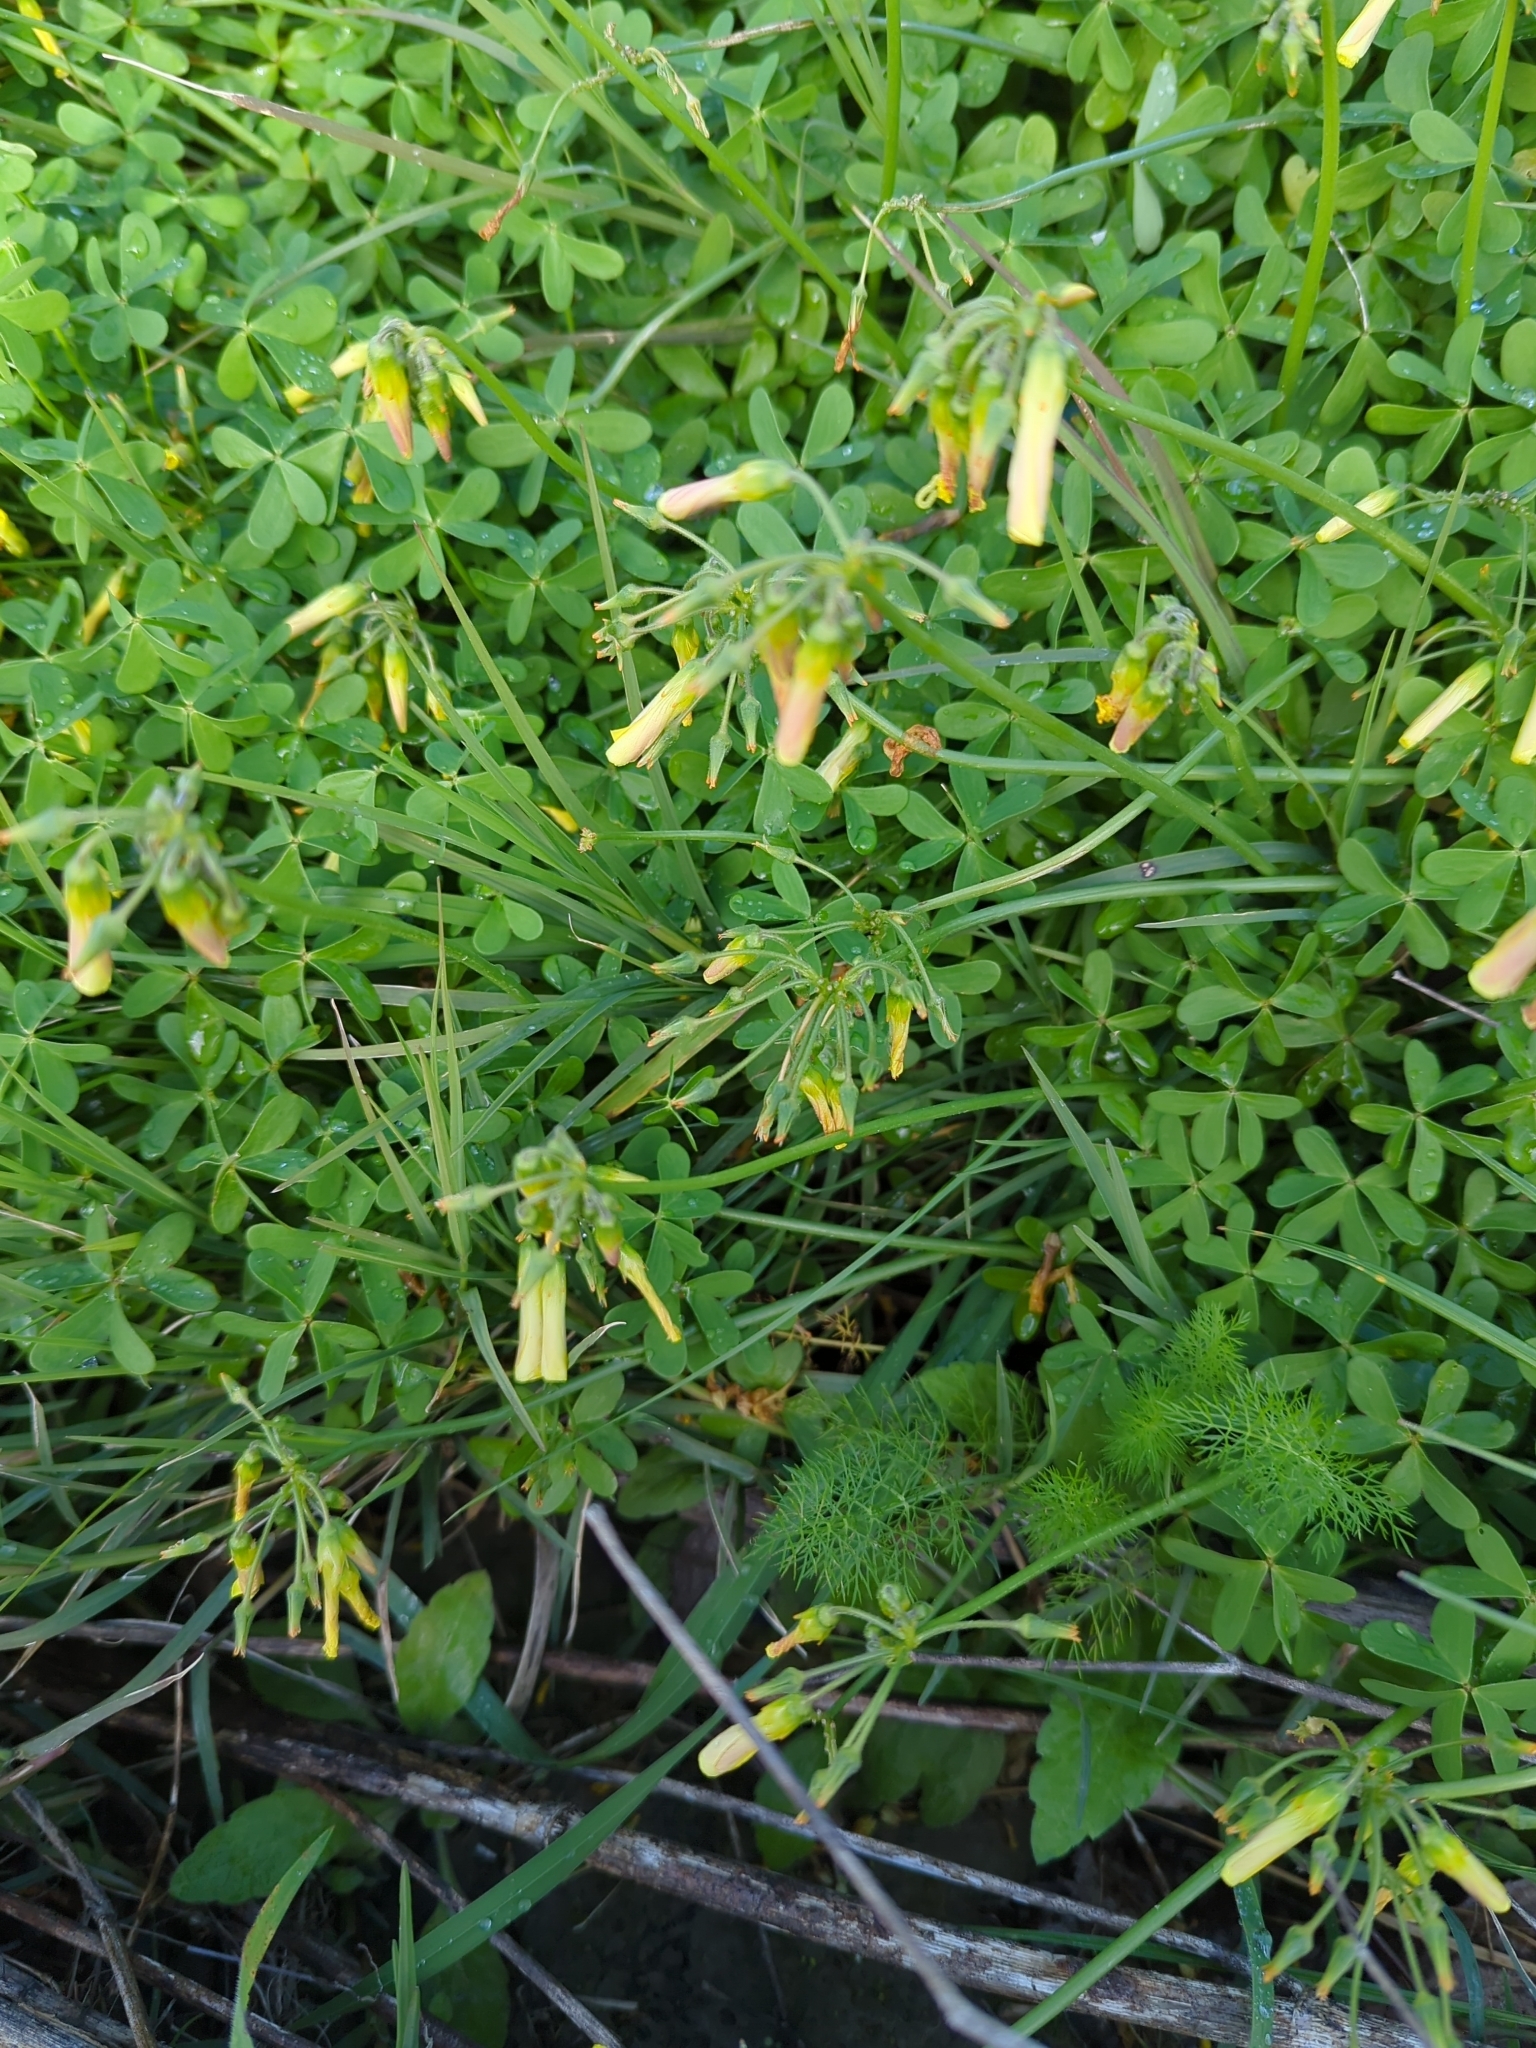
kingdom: Plantae
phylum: Tracheophyta
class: Magnoliopsida
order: Oxalidales
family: Oxalidaceae
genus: Oxalis
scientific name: Oxalis pes-caprae
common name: Bermuda-buttercup
